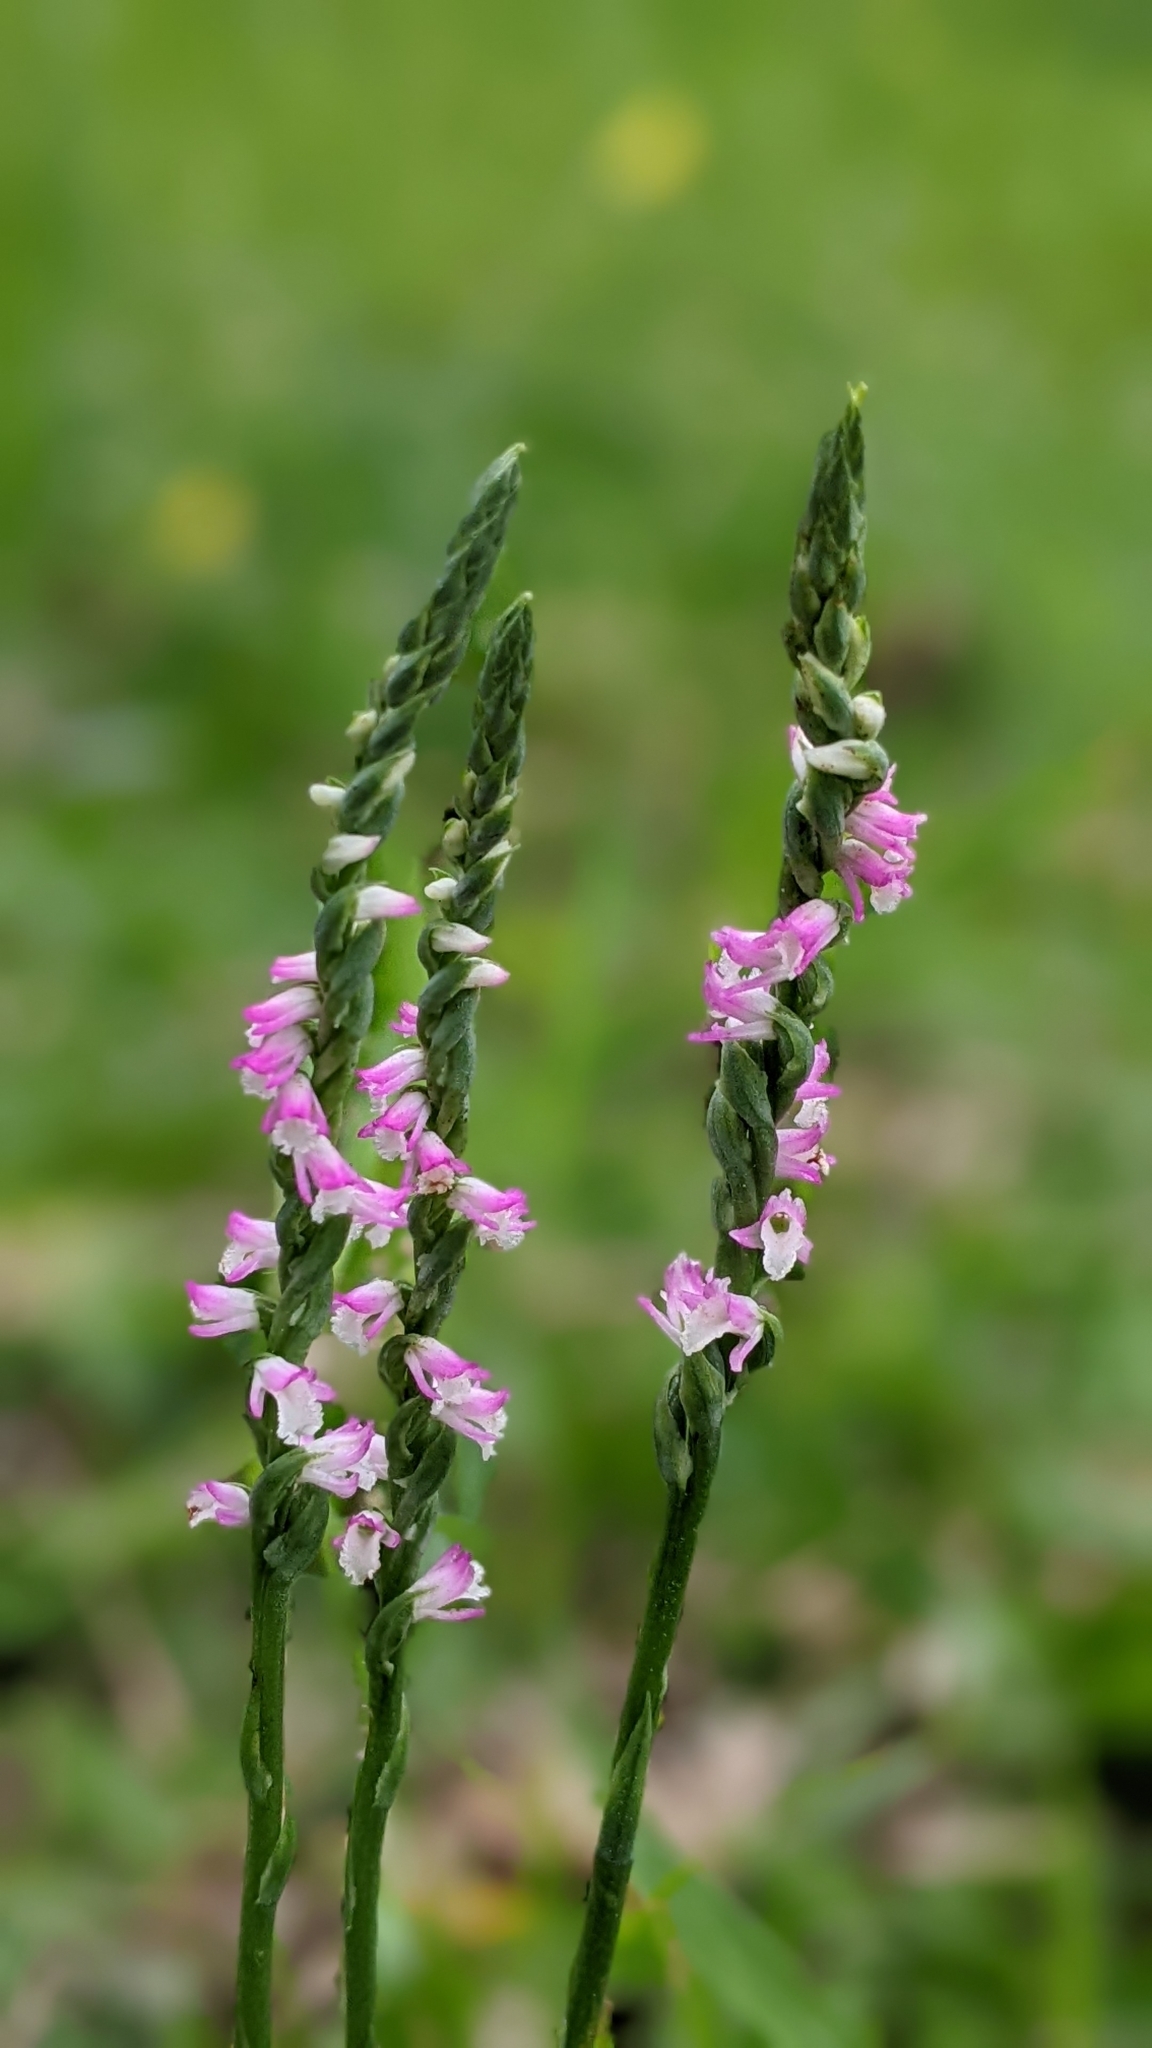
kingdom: Plantae
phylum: Tracheophyta
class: Liliopsida
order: Asparagales
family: Orchidaceae
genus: Spiranthes
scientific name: Spiranthes sinensis
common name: Chinese spiranthes
